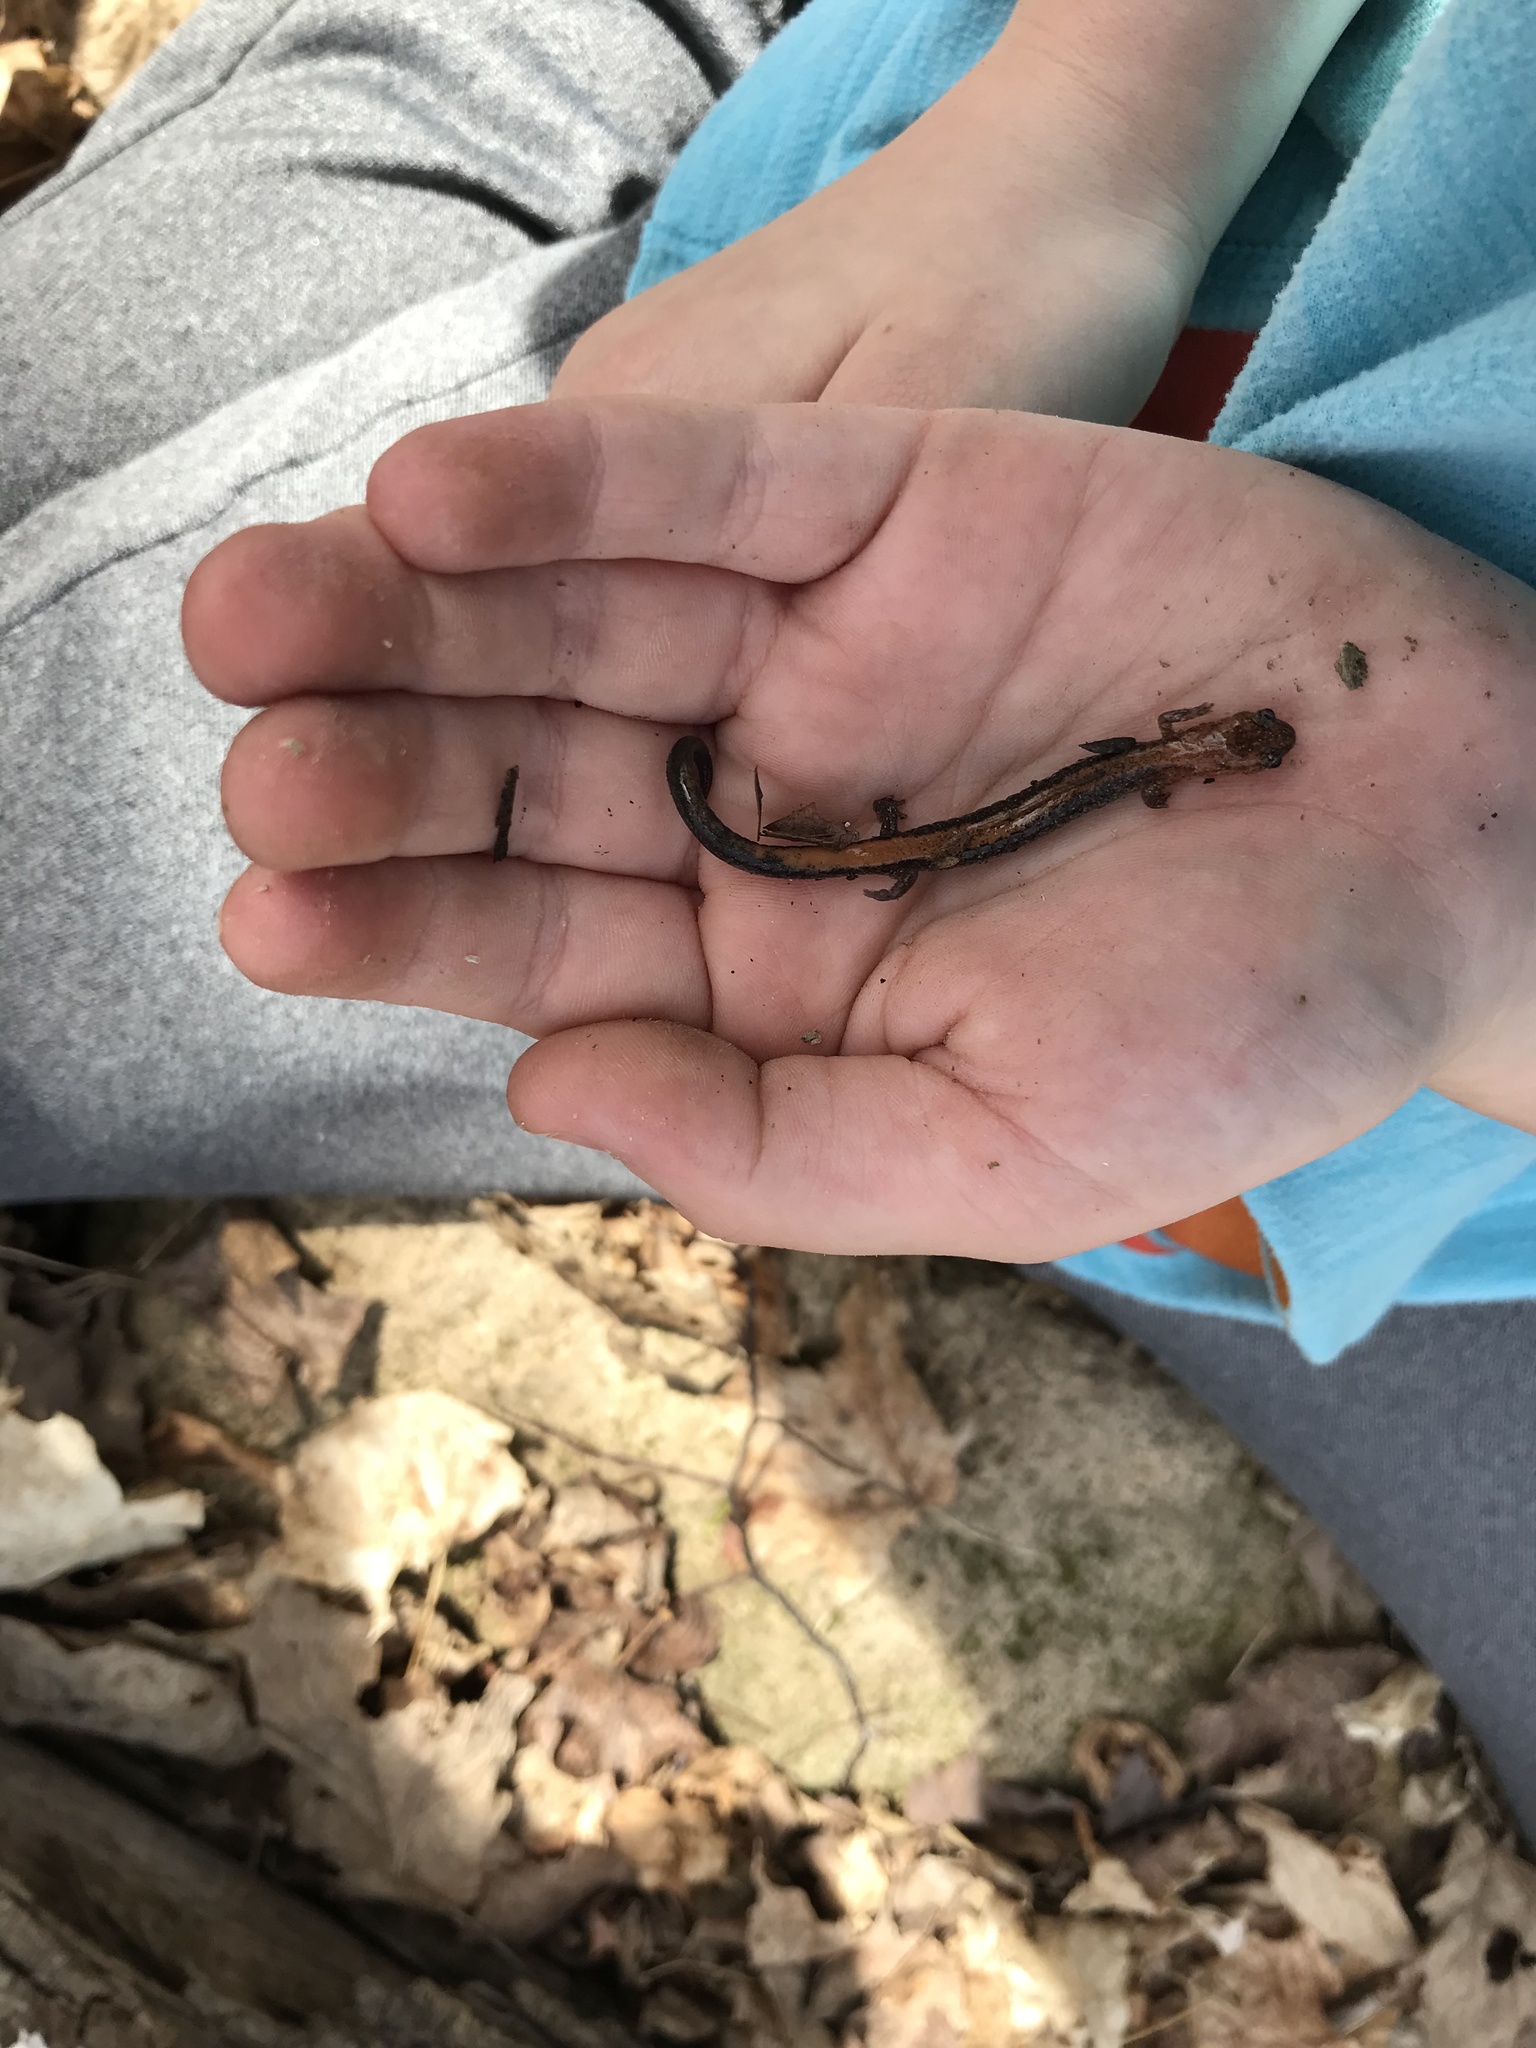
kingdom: Animalia
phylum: Chordata
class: Amphibia
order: Caudata
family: Plethodontidae
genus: Plethodon
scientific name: Plethodon cinereus
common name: Redback salamander
